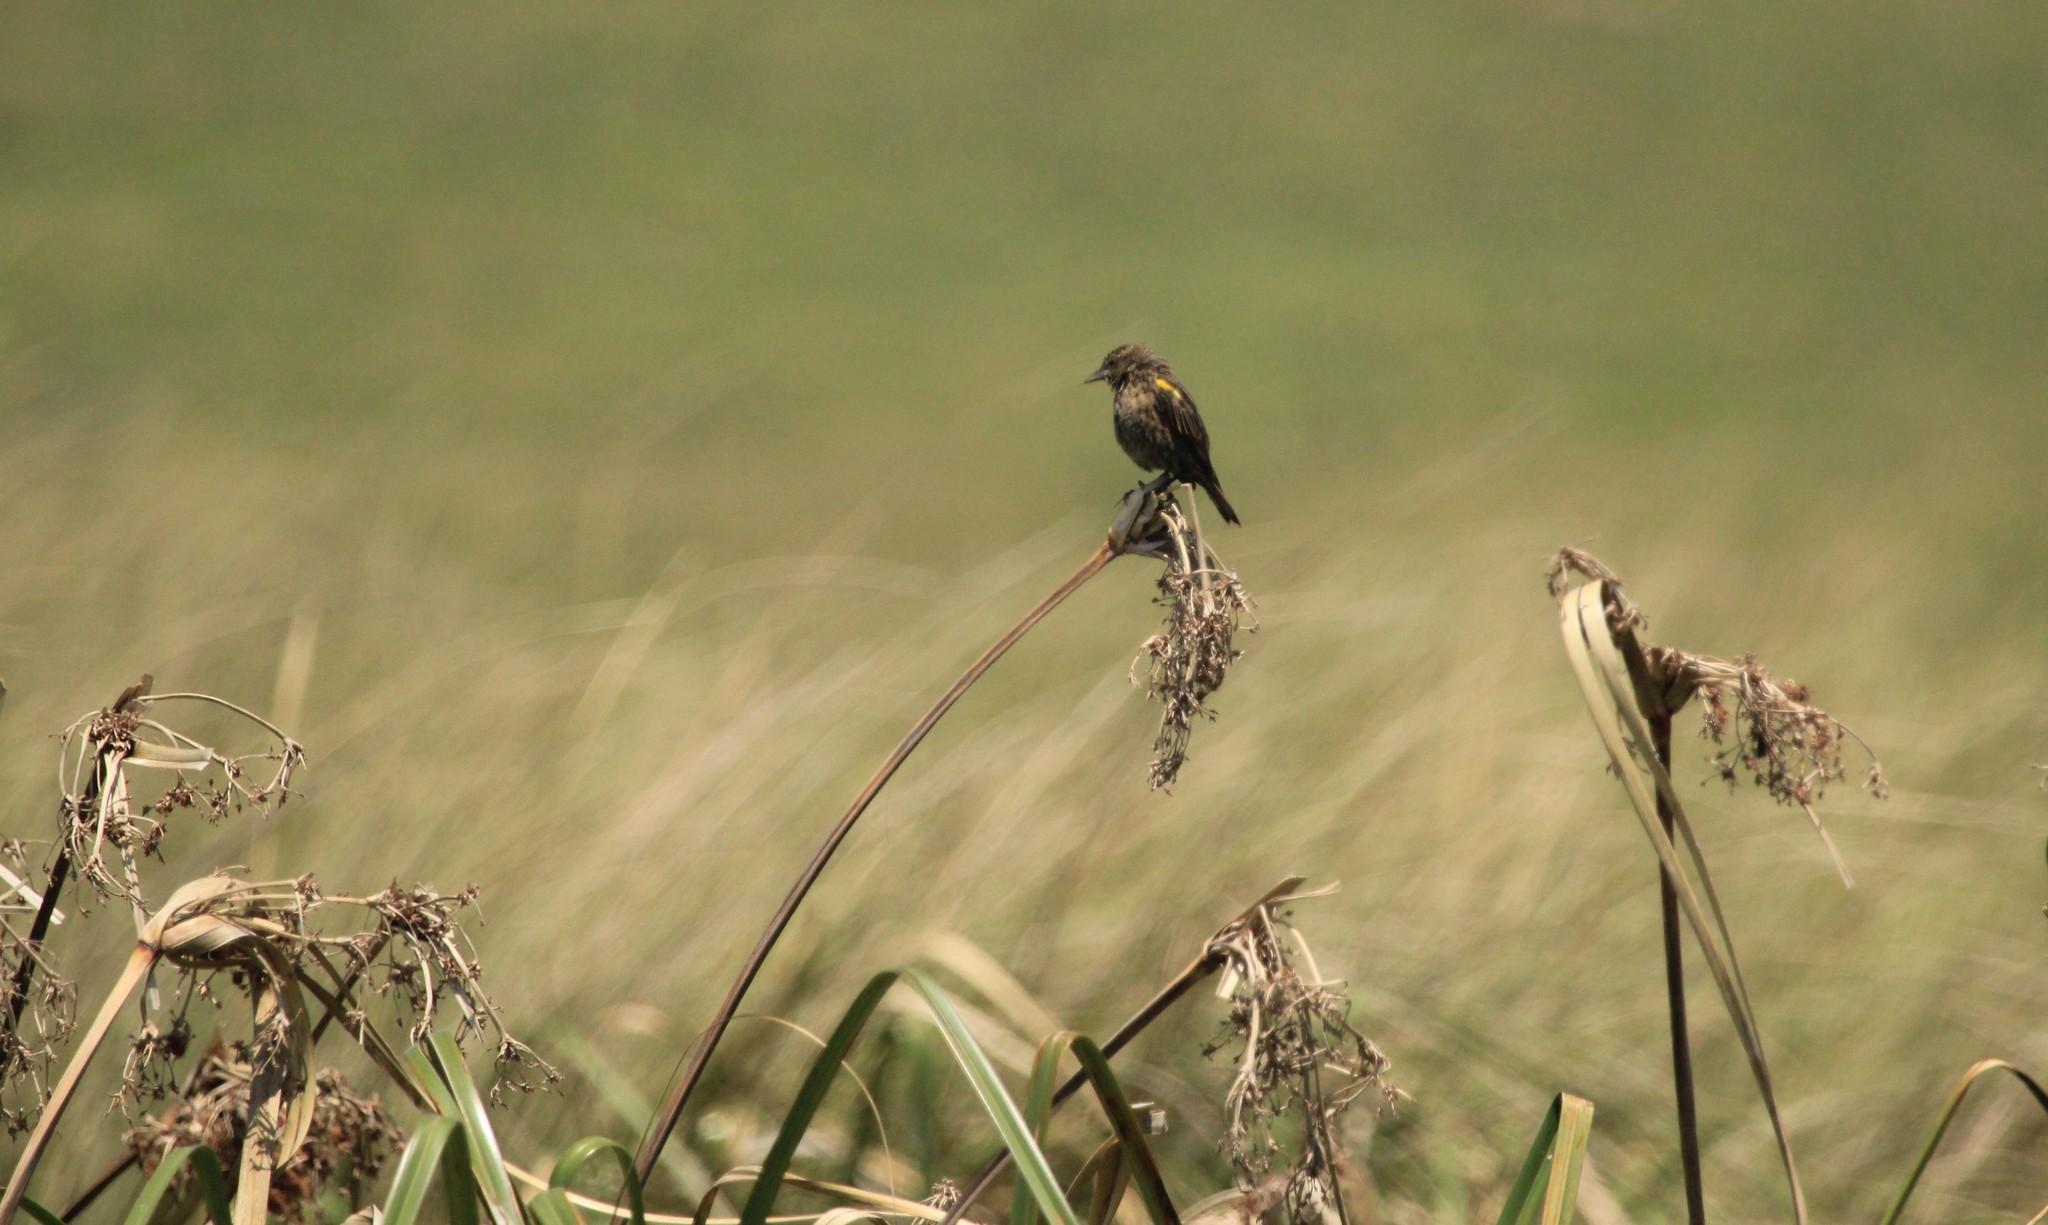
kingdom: Animalia
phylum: Chordata
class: Aves
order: Passeriformes
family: Icteridae
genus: Agelasticus
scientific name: Agelasticus thilius
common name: Yellow-winged blackbird
